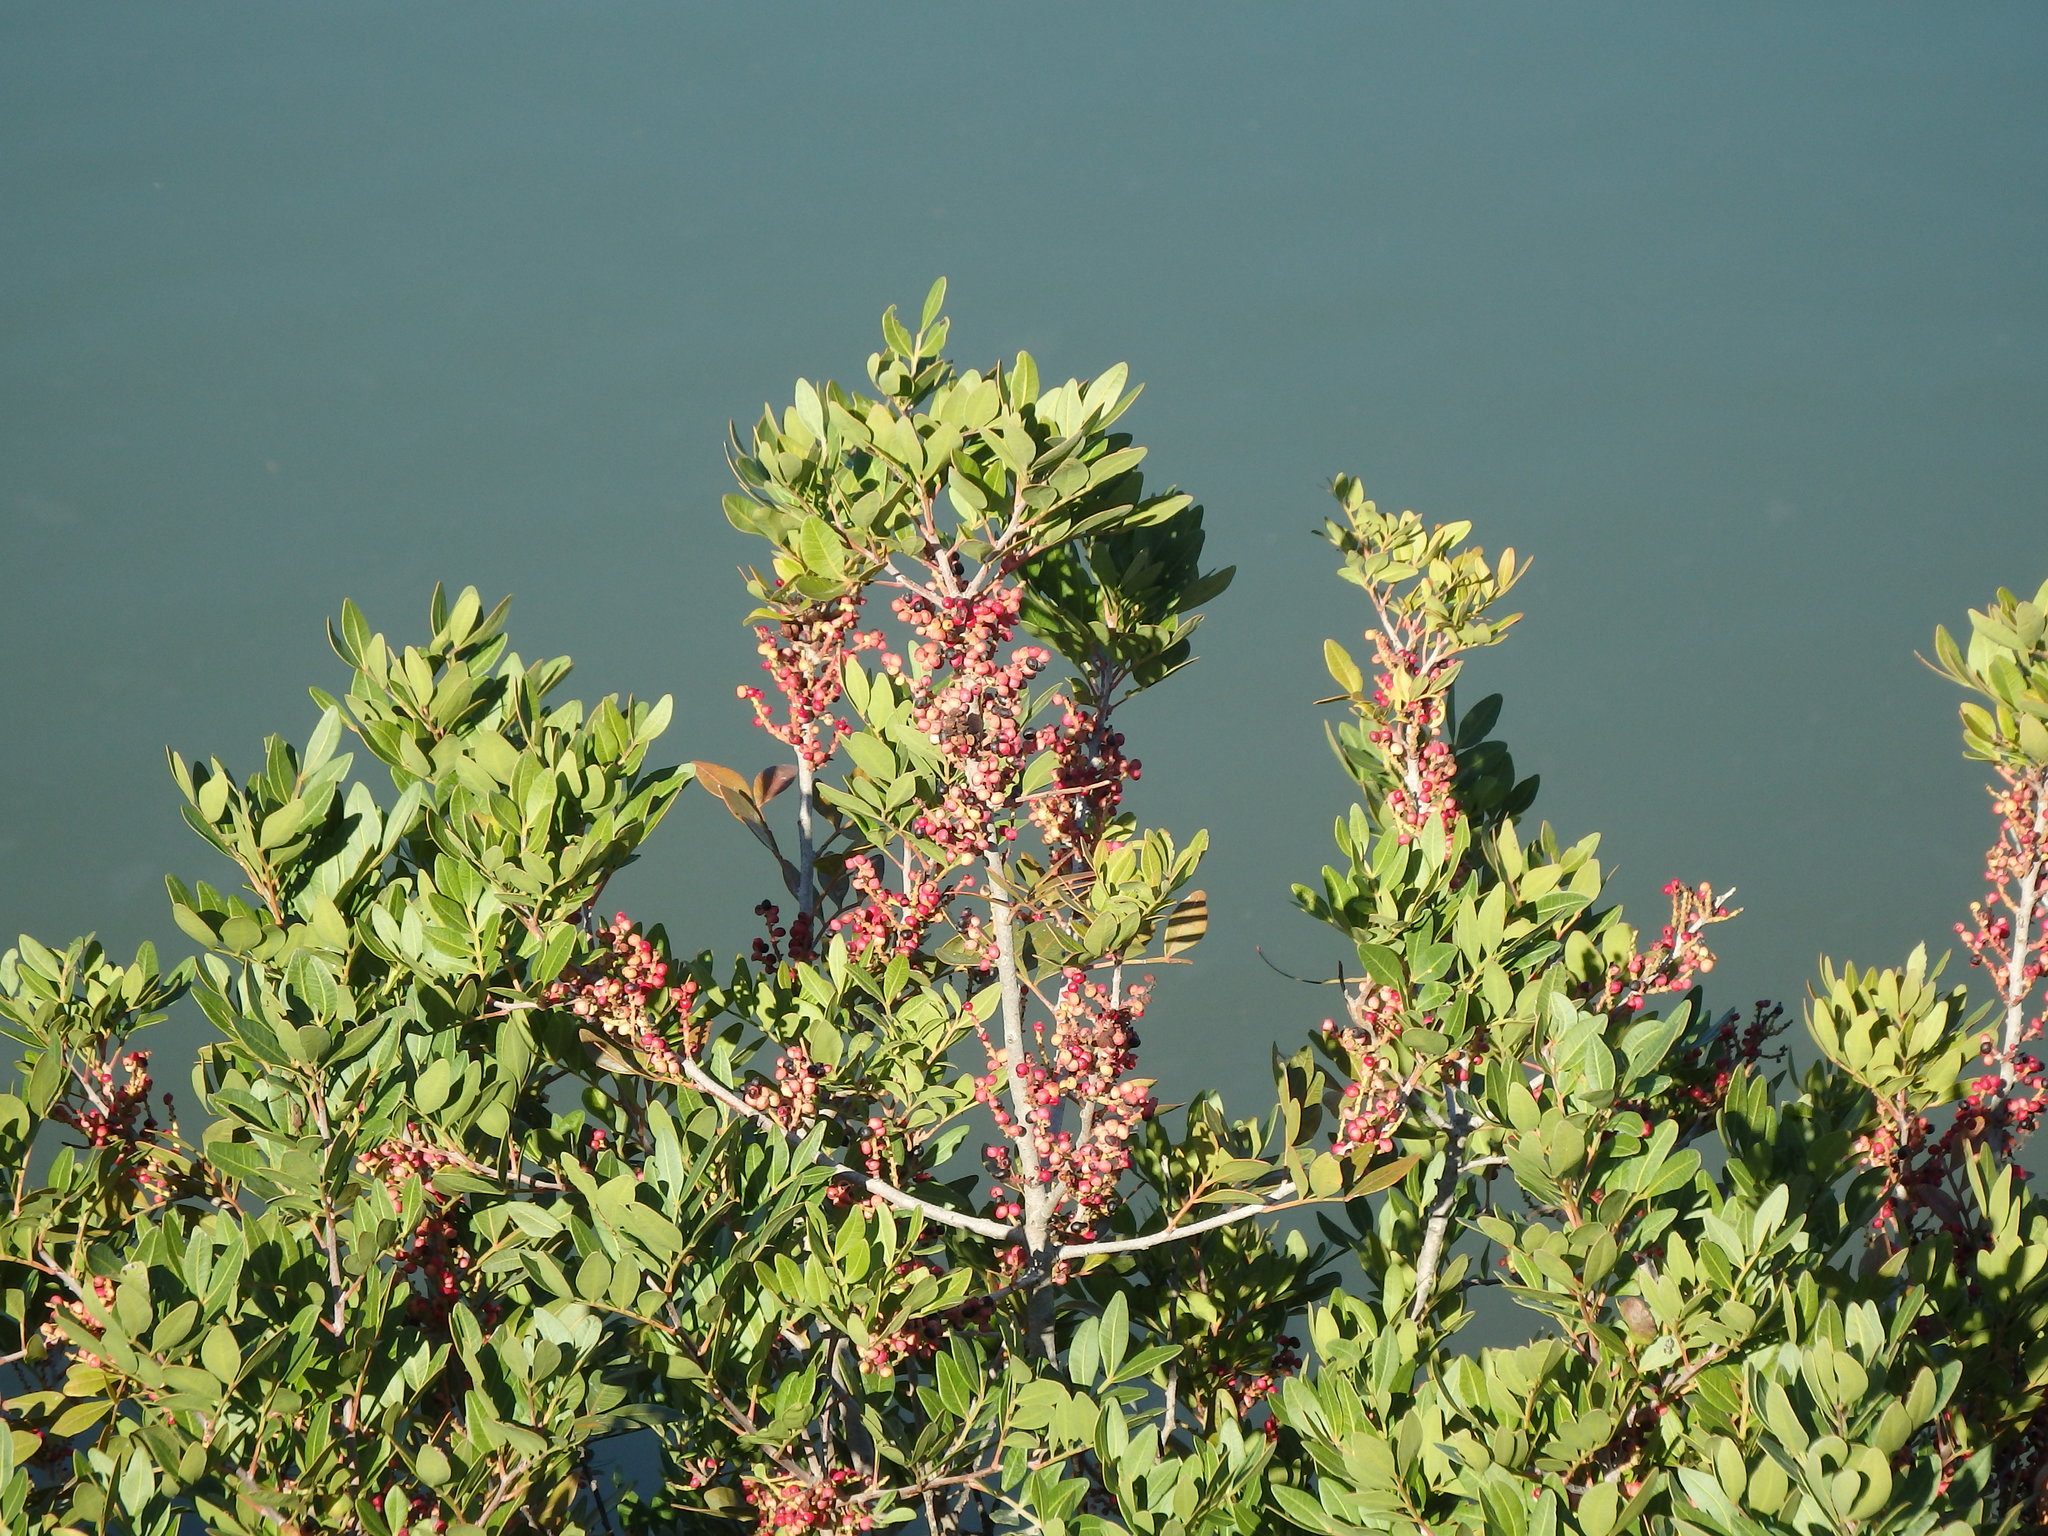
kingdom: Plantae
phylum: Tracheophyta
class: Magnoliopsida
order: Sapindales
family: Anacardiaceae
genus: Pistacia
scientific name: Pistacia lentiscus
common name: Lentisk
